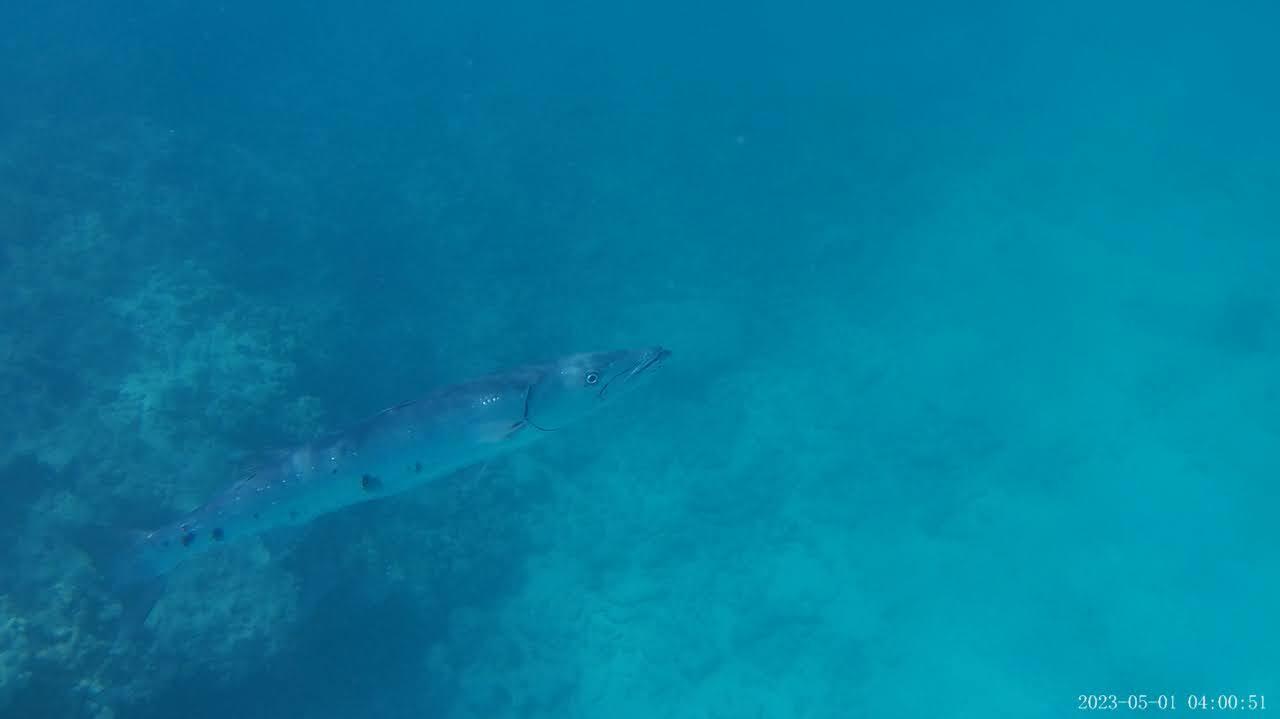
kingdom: Animalia
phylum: Chordata
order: Perciformes
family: Sphyraenidae
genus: Sphyraena
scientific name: Sphyraena barracuda
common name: Great barracuda
